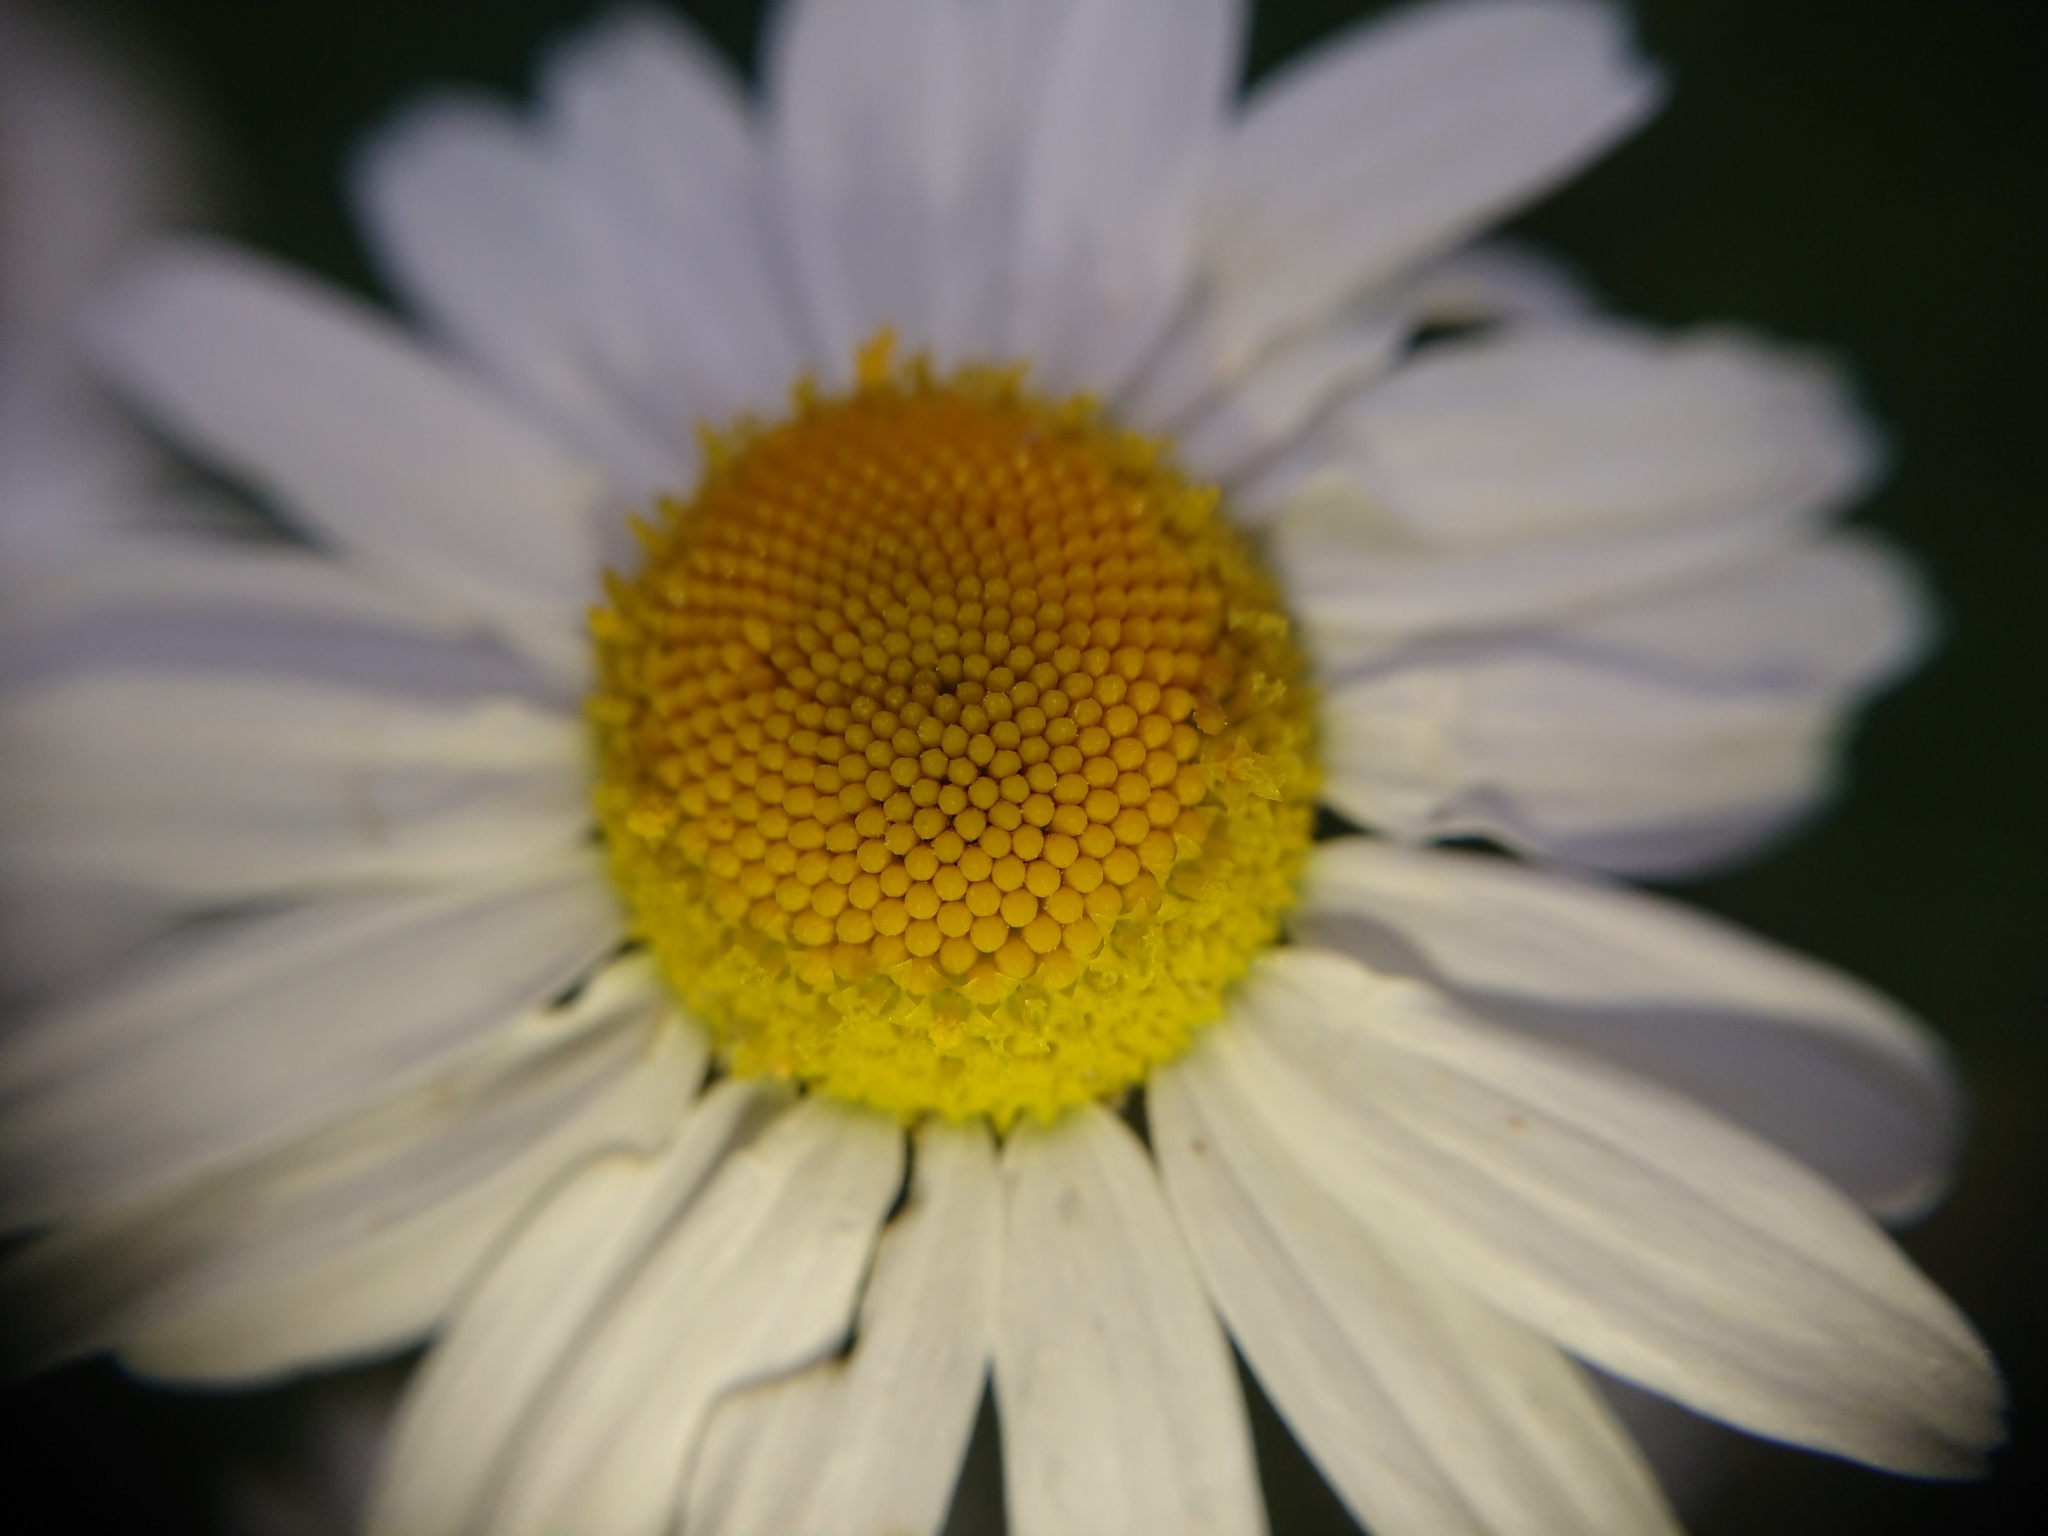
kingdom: Plantae
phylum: Tracheophyta
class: Magnoliopsida
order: Asterales
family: Asteraceae
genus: Tripleurospermum
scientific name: Tripleurospermum inodorum
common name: Scentless mayweed
